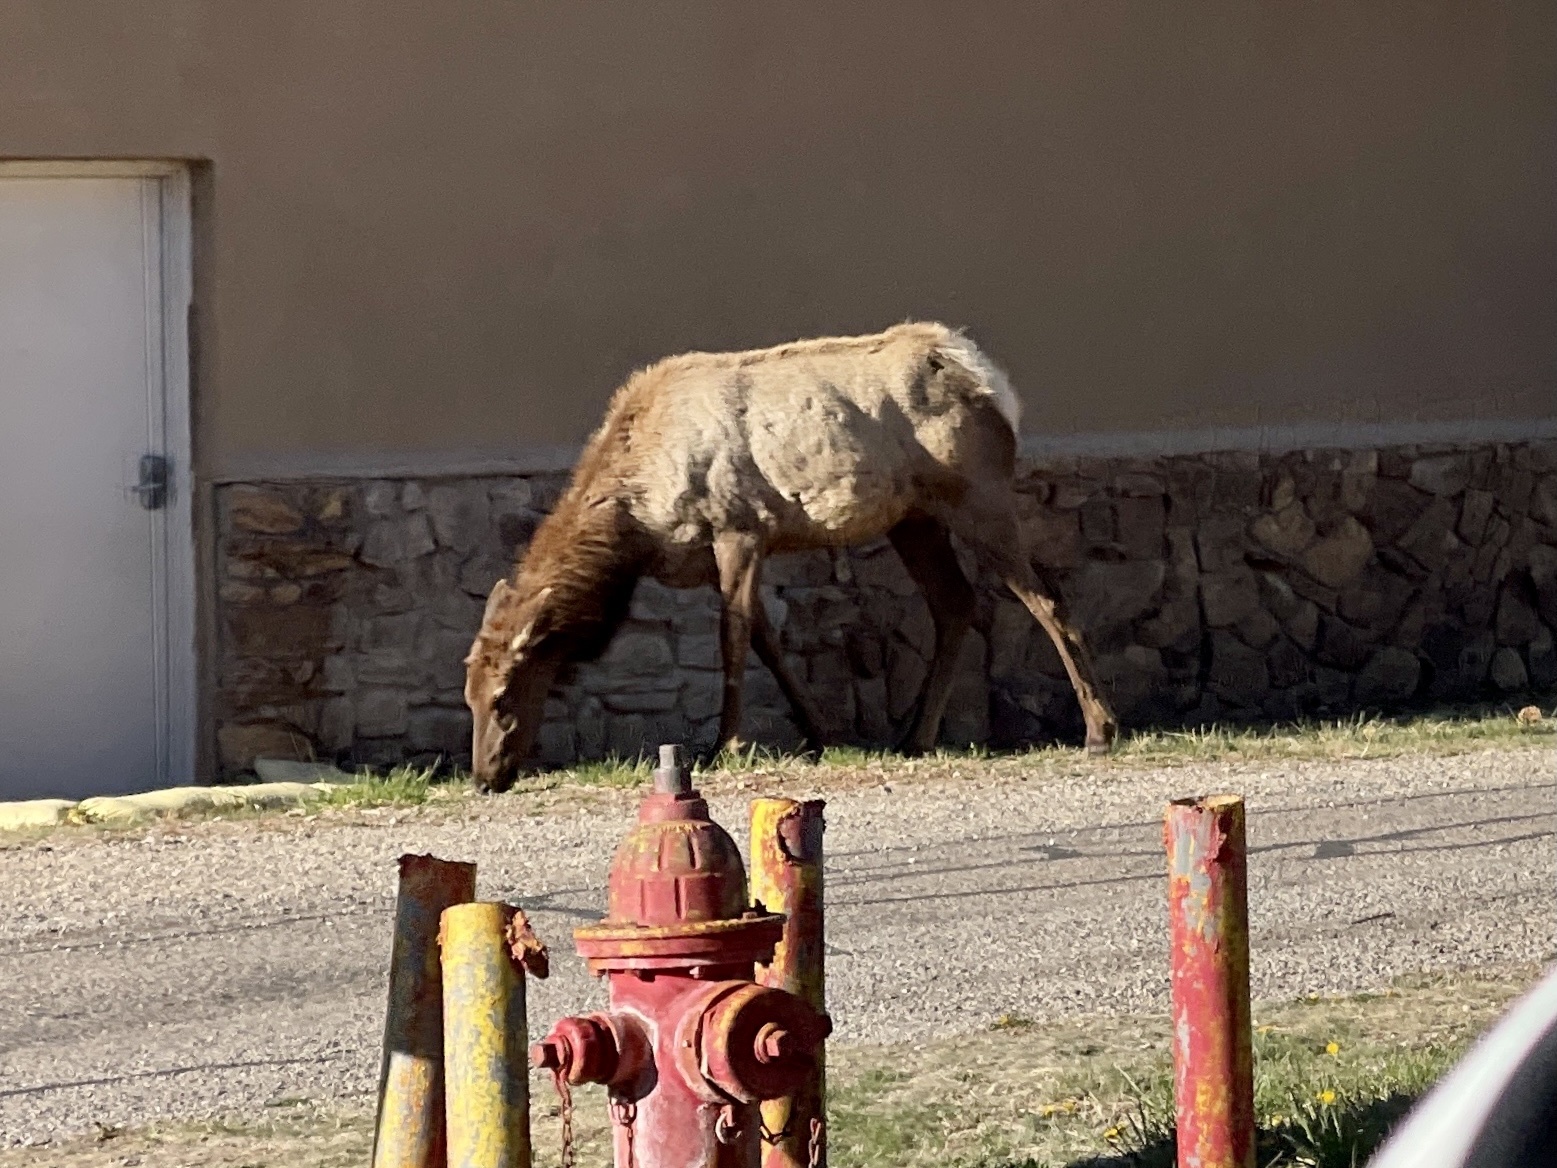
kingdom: Animalia
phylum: Chordata
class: Mammalia
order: Artiodactyla
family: Cervidae
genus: Cervus
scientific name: Cervus elaphus
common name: Red deer
